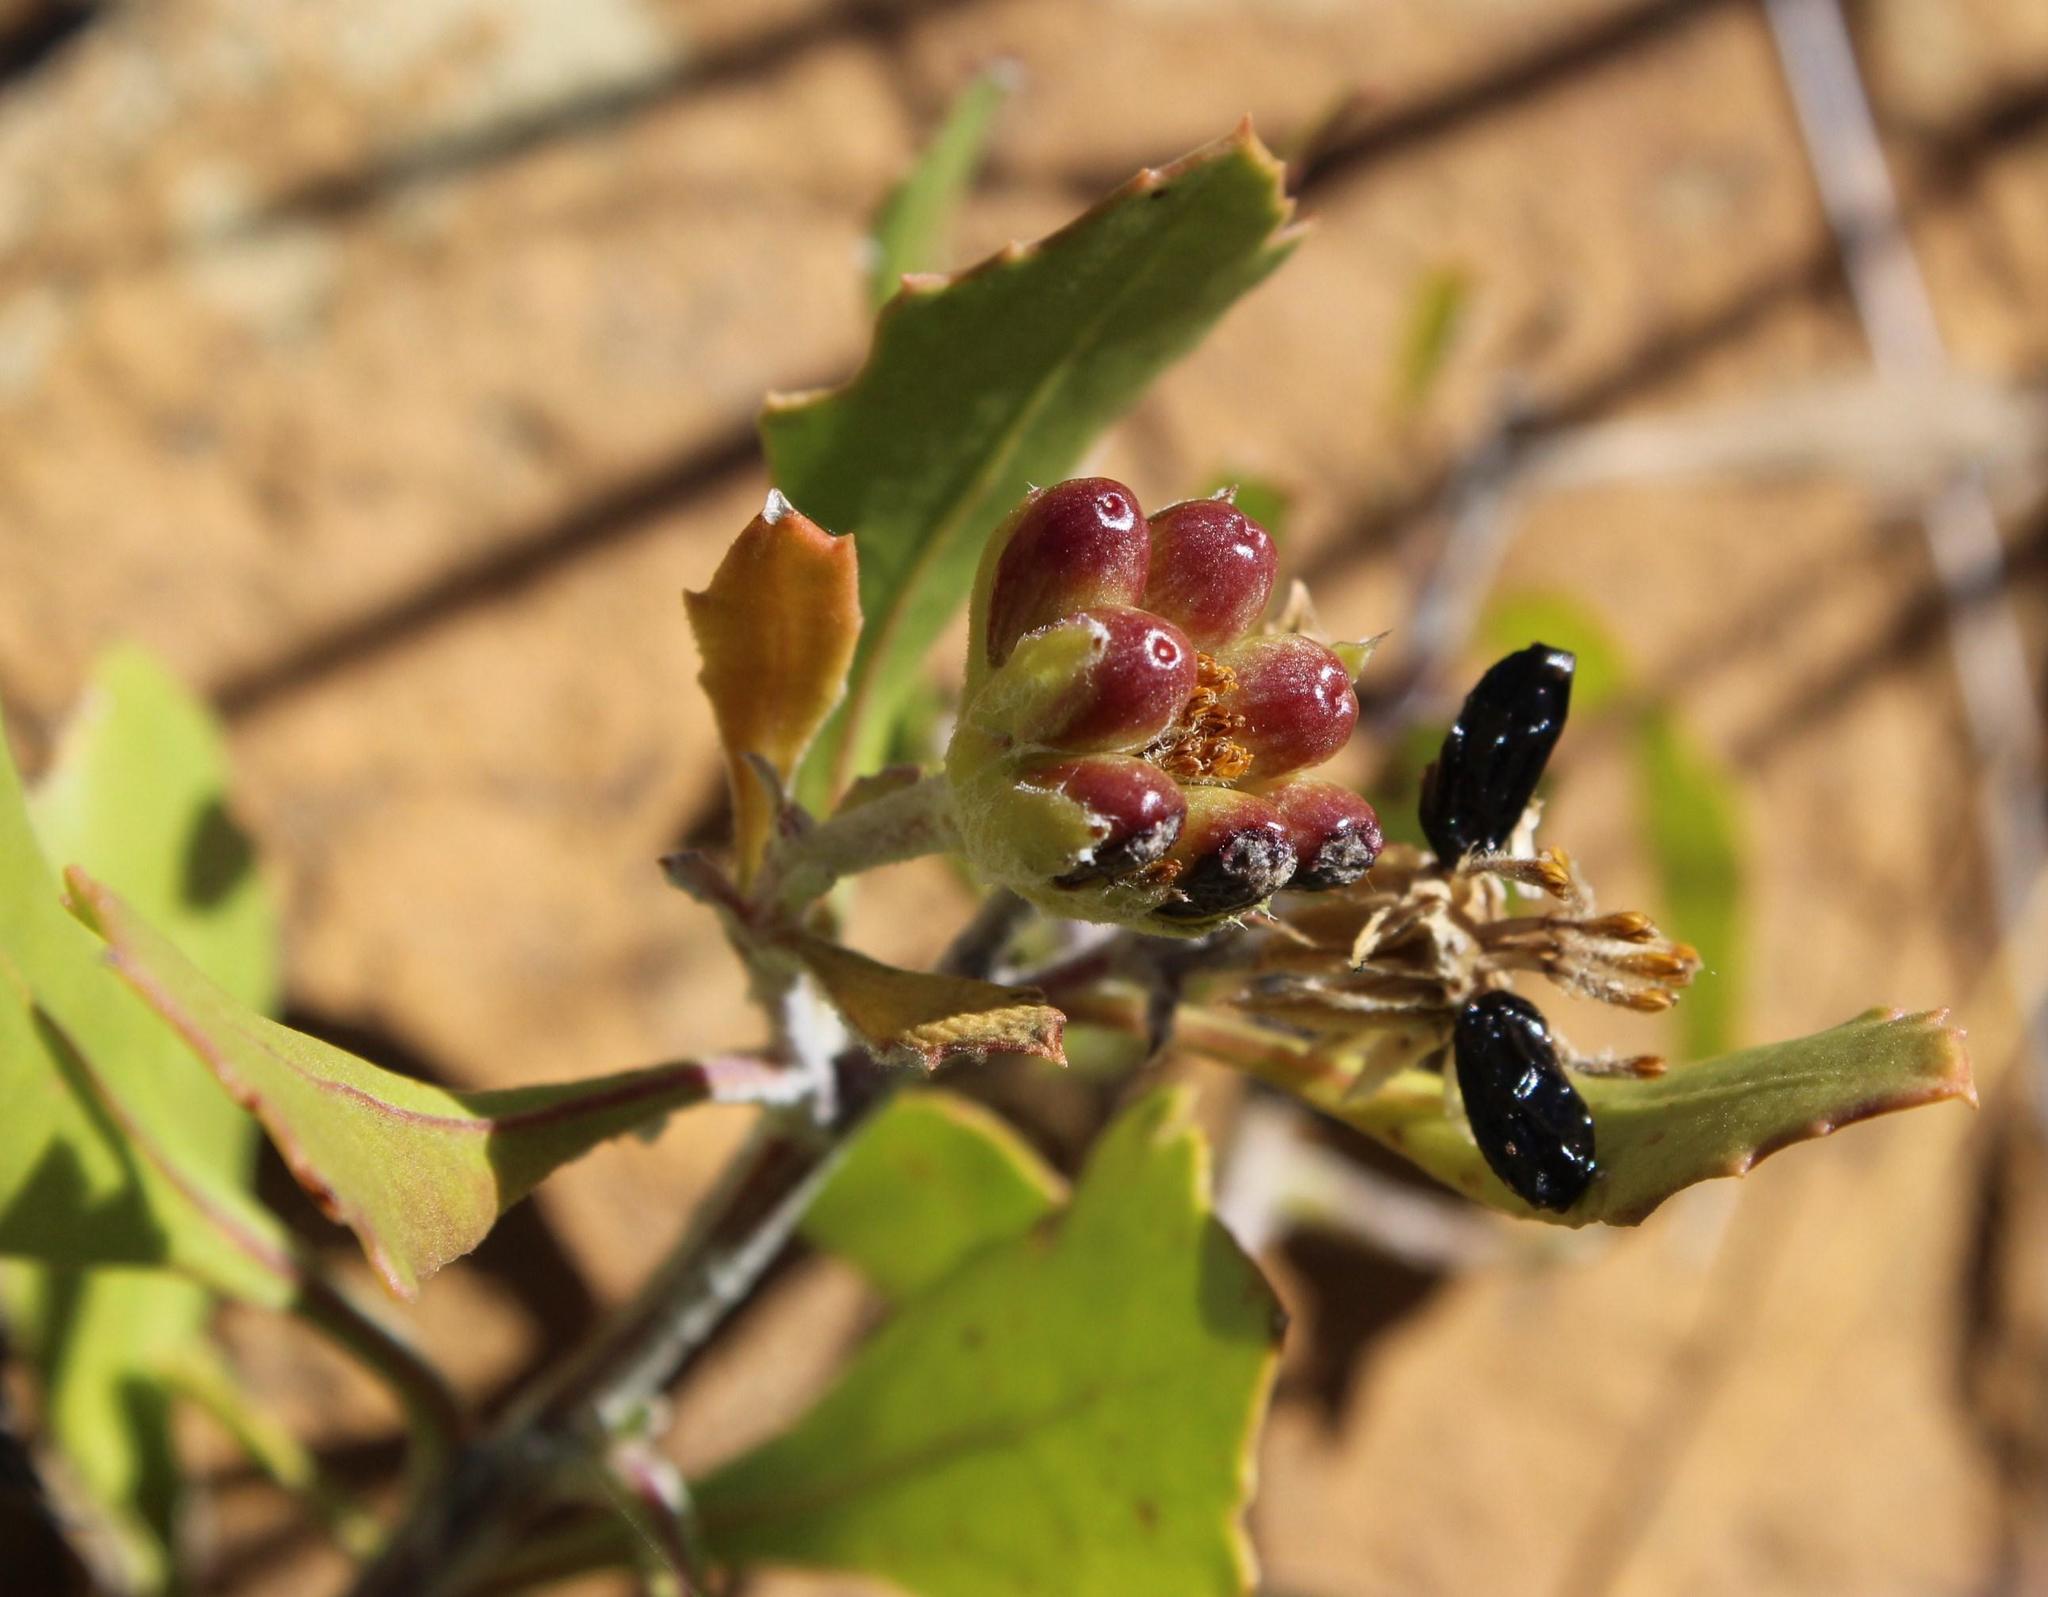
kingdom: Plantae
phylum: Tracheophyta
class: Magnoliopsida
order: Asterales
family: Asteraceae
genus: Osteospermum
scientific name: Osteospermum moniliferum
